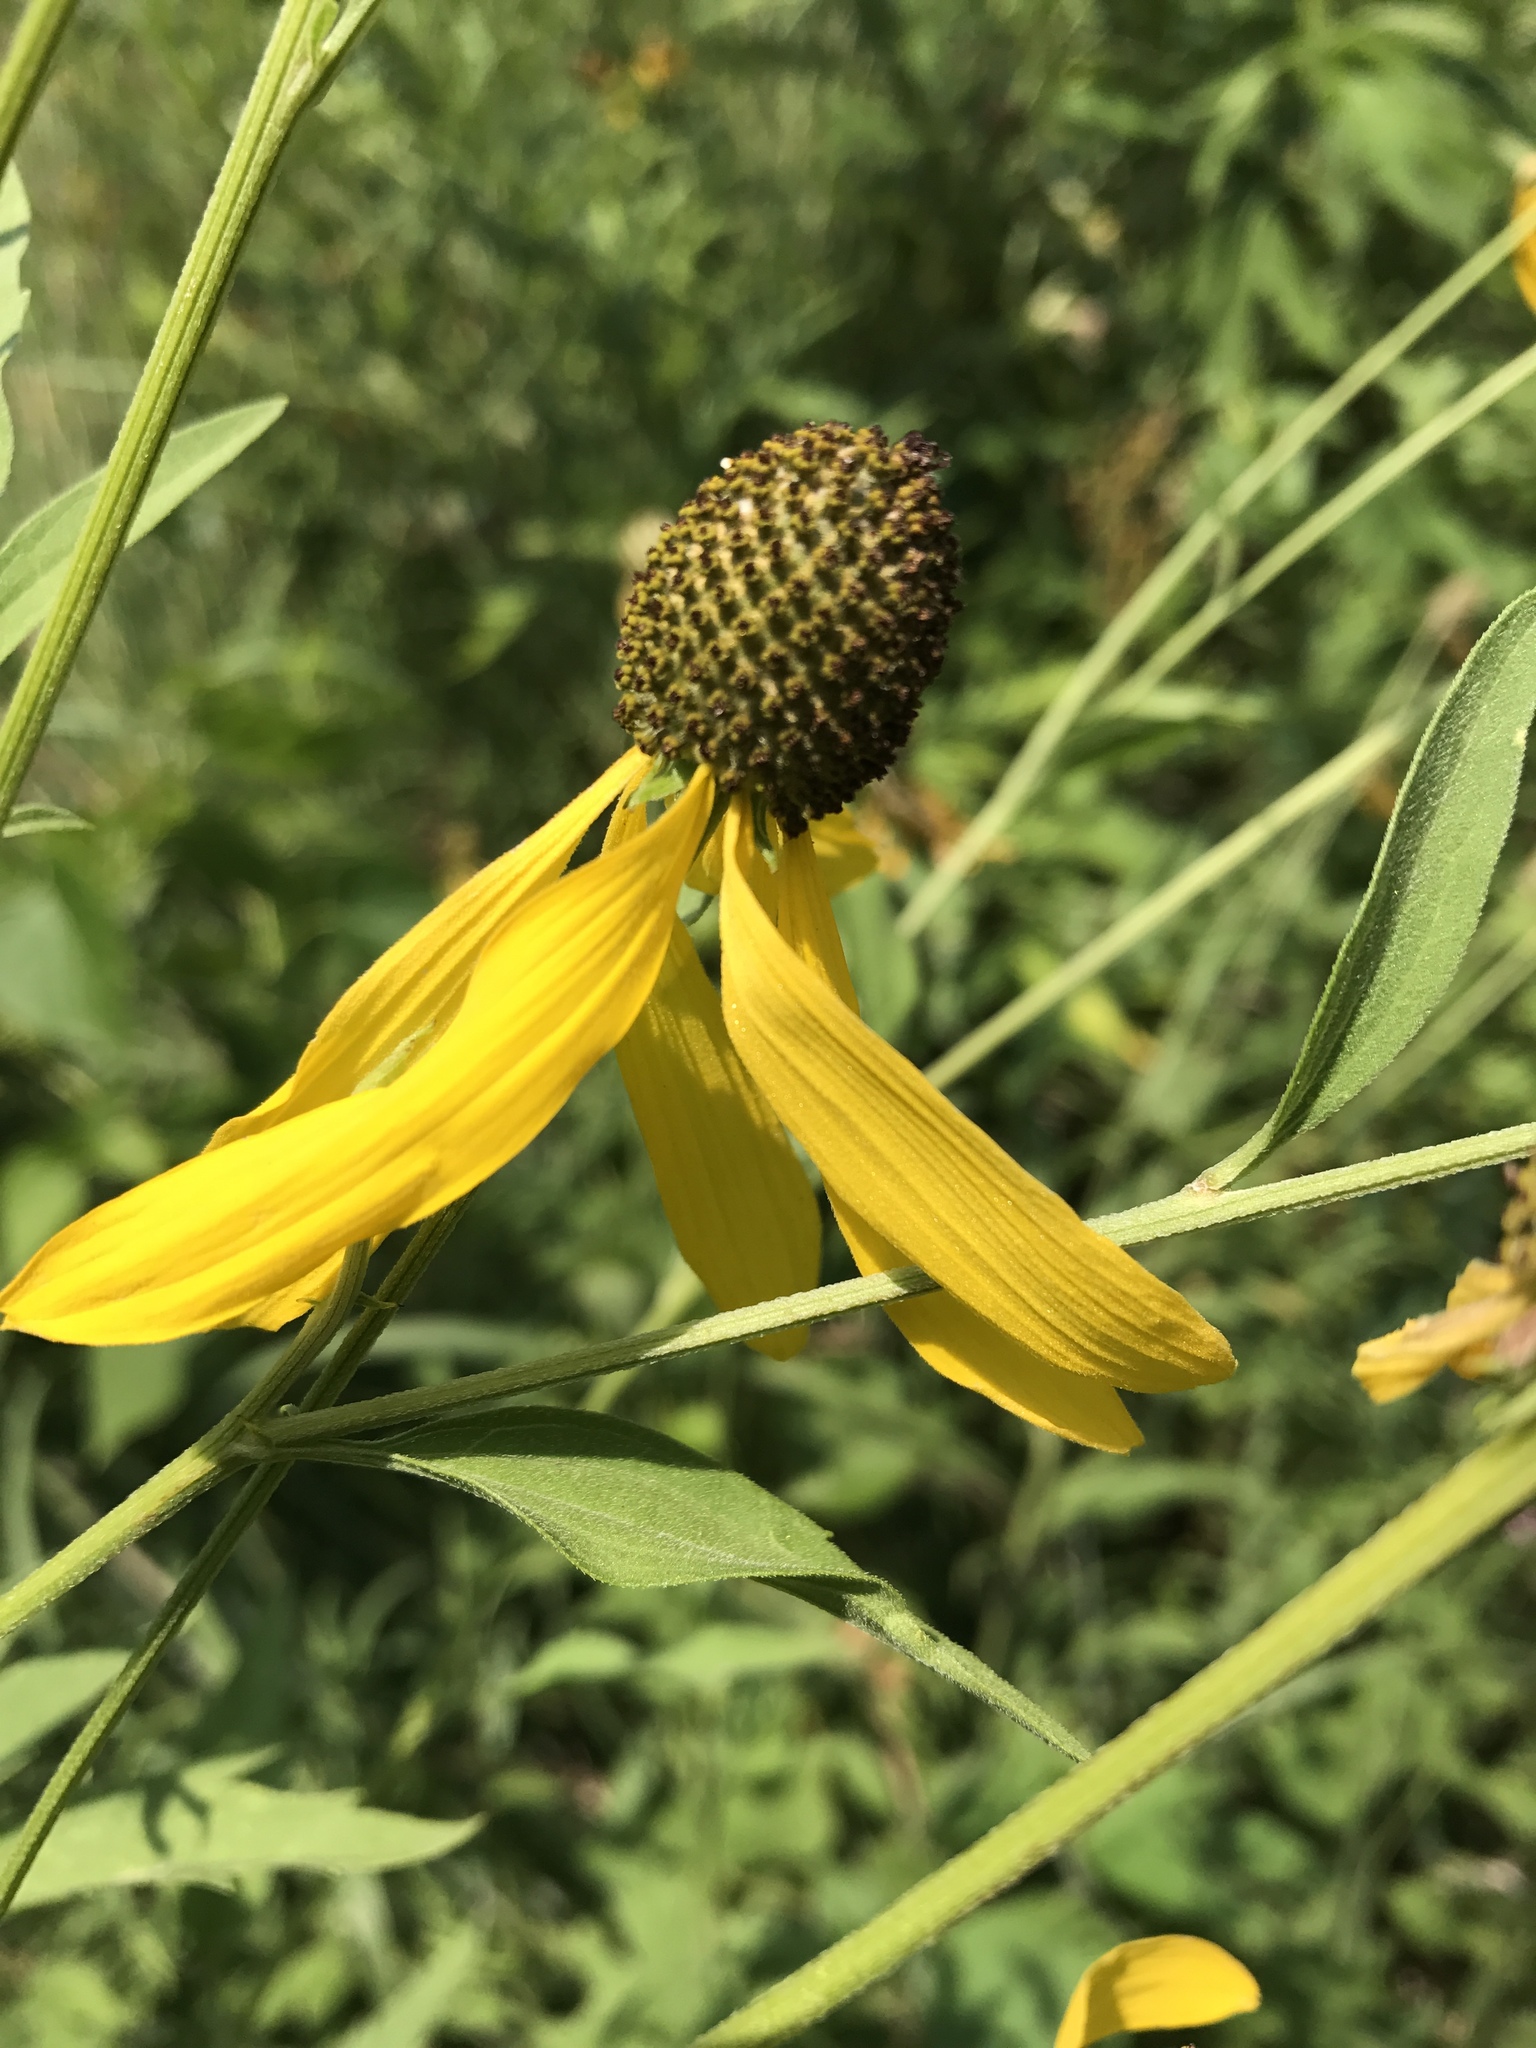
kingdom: Plantae
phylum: Tracheophyta
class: Magnoliopsida
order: Asterales
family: Asteraceae
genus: Ratibida
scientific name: Ratibida pinnata
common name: Drooping prairie-coneflower
